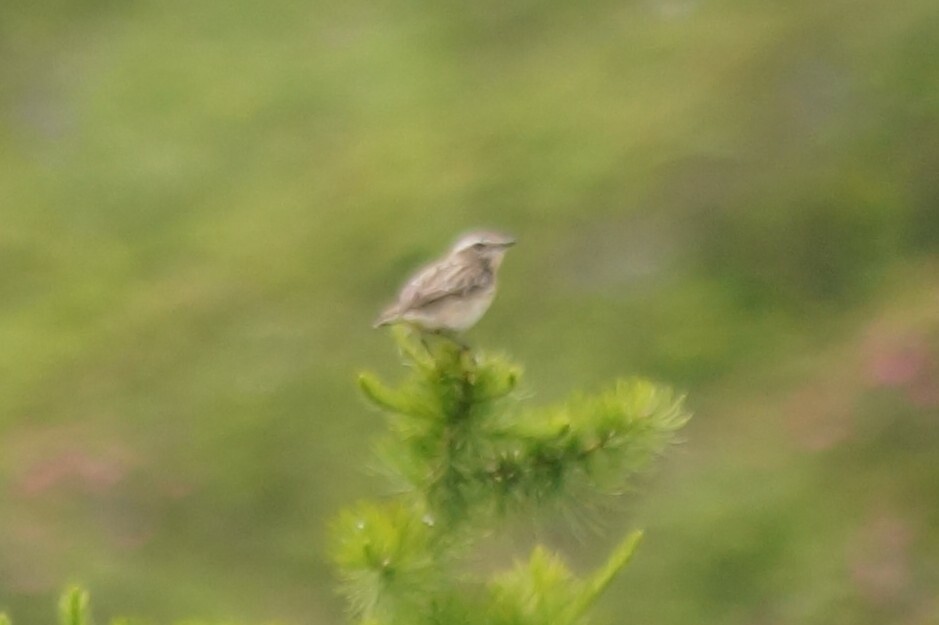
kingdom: Animalia
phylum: Chordata
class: Aves
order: Passeriformes
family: Muscicapidae
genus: Saxicola
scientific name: Saxicola rubetra
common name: Whinchat
